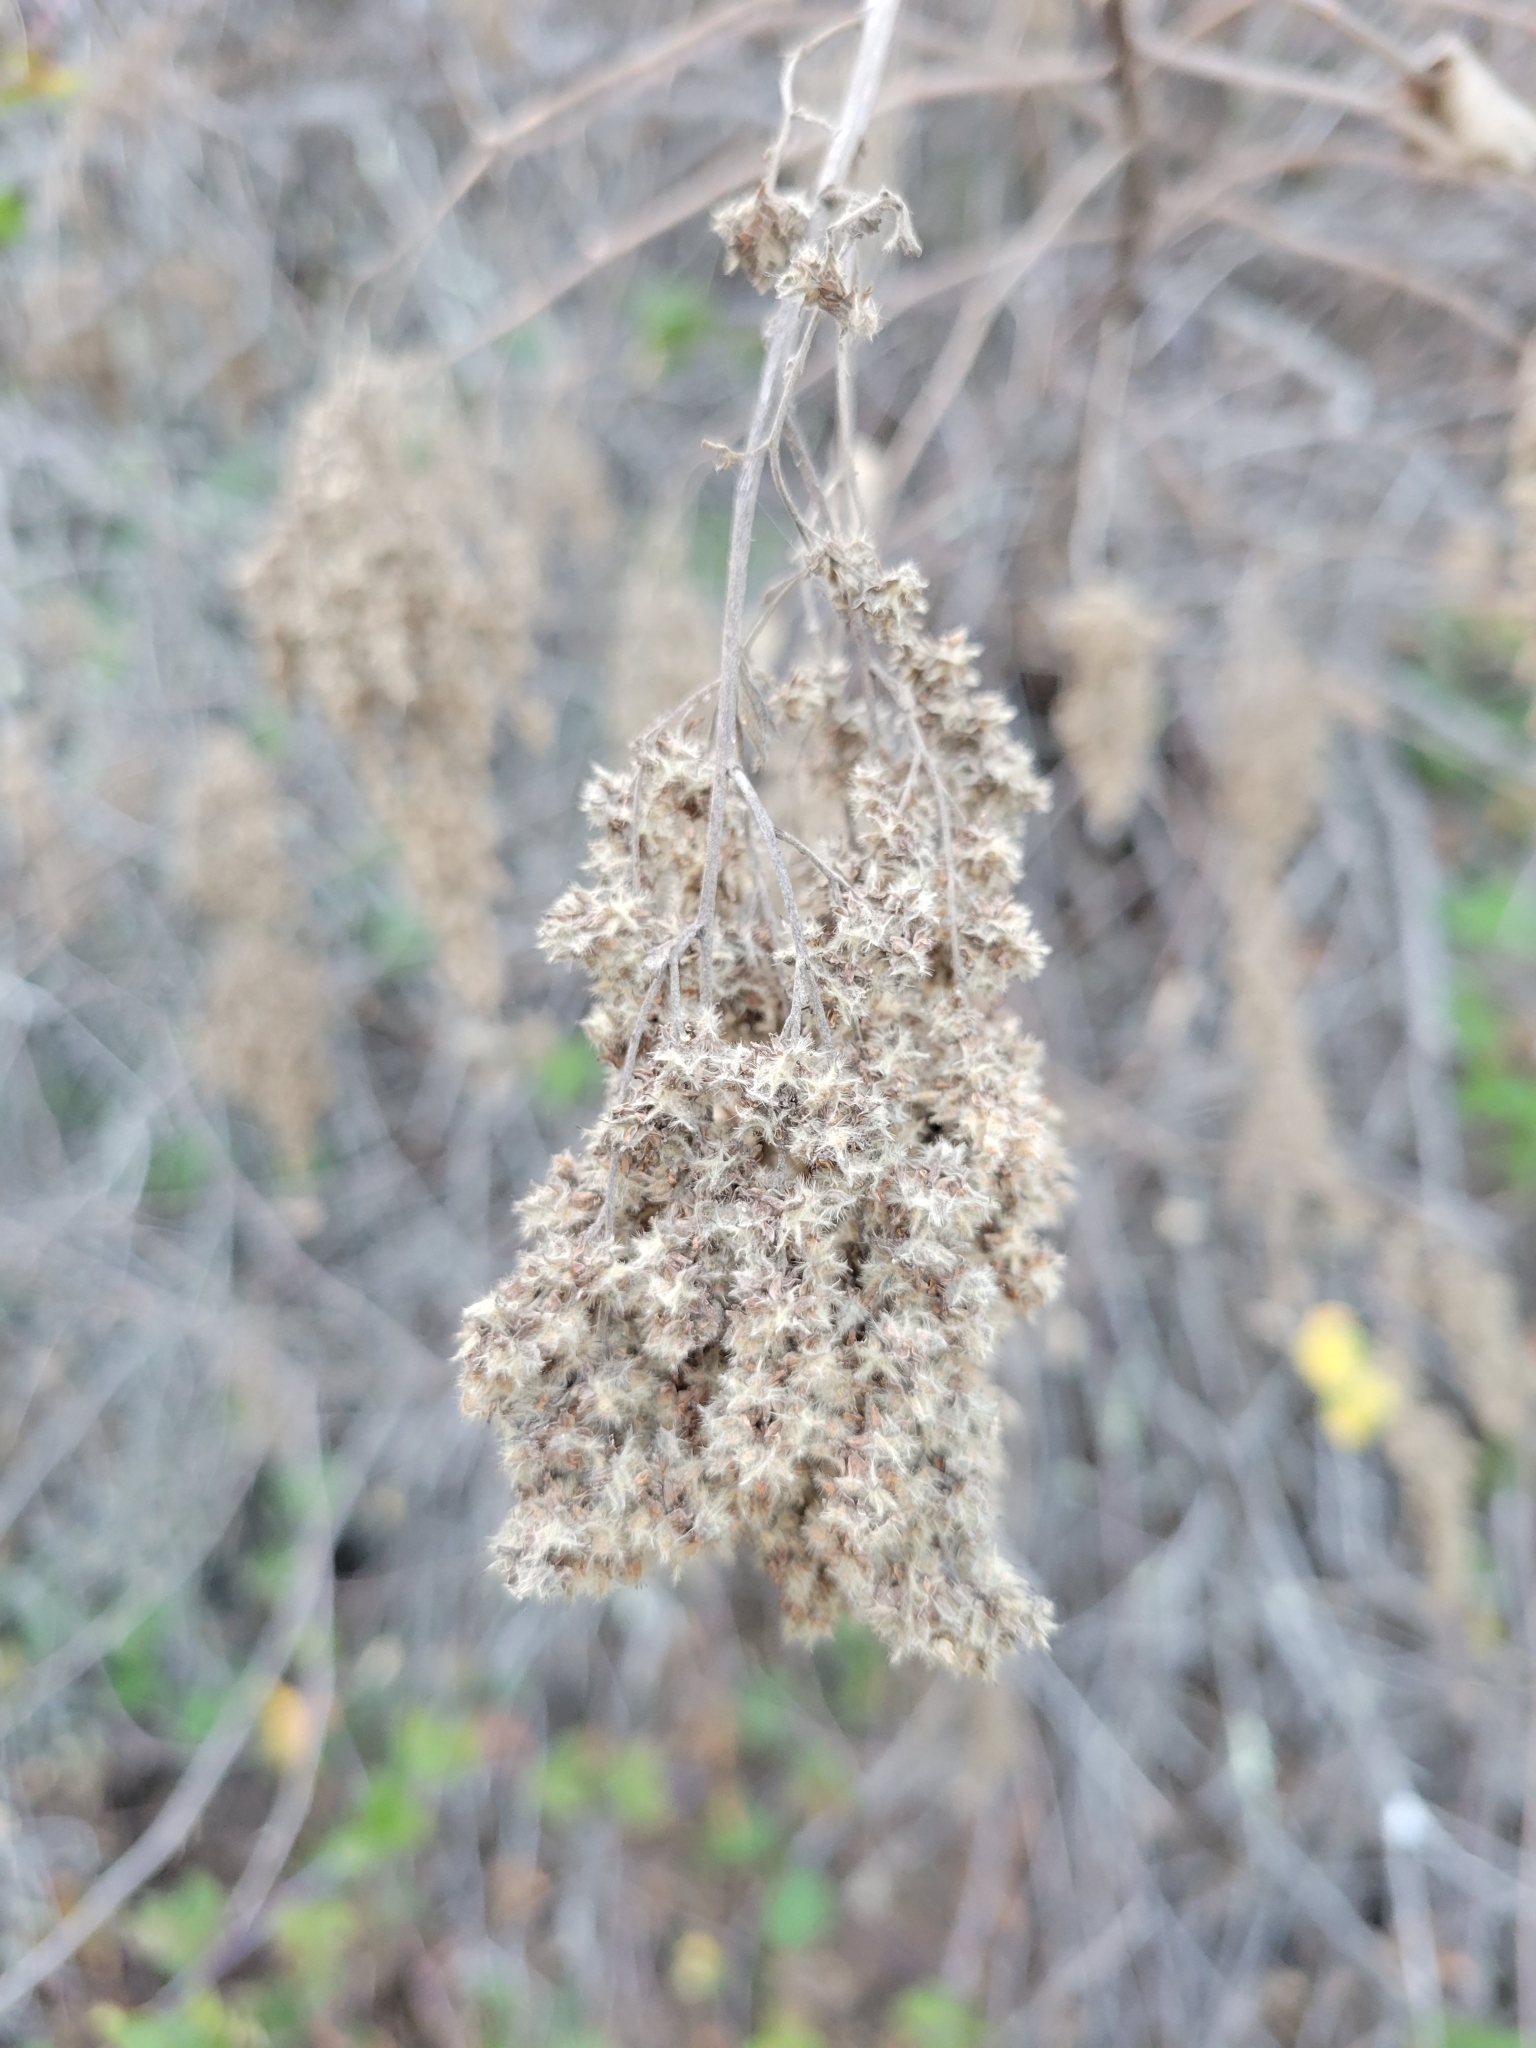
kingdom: Plantae
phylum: Tracheophyta
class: Magnoliopsida
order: Rosales
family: Rosaceae
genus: Holodiscus
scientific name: Holodiscus discolor
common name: Oceanspray
